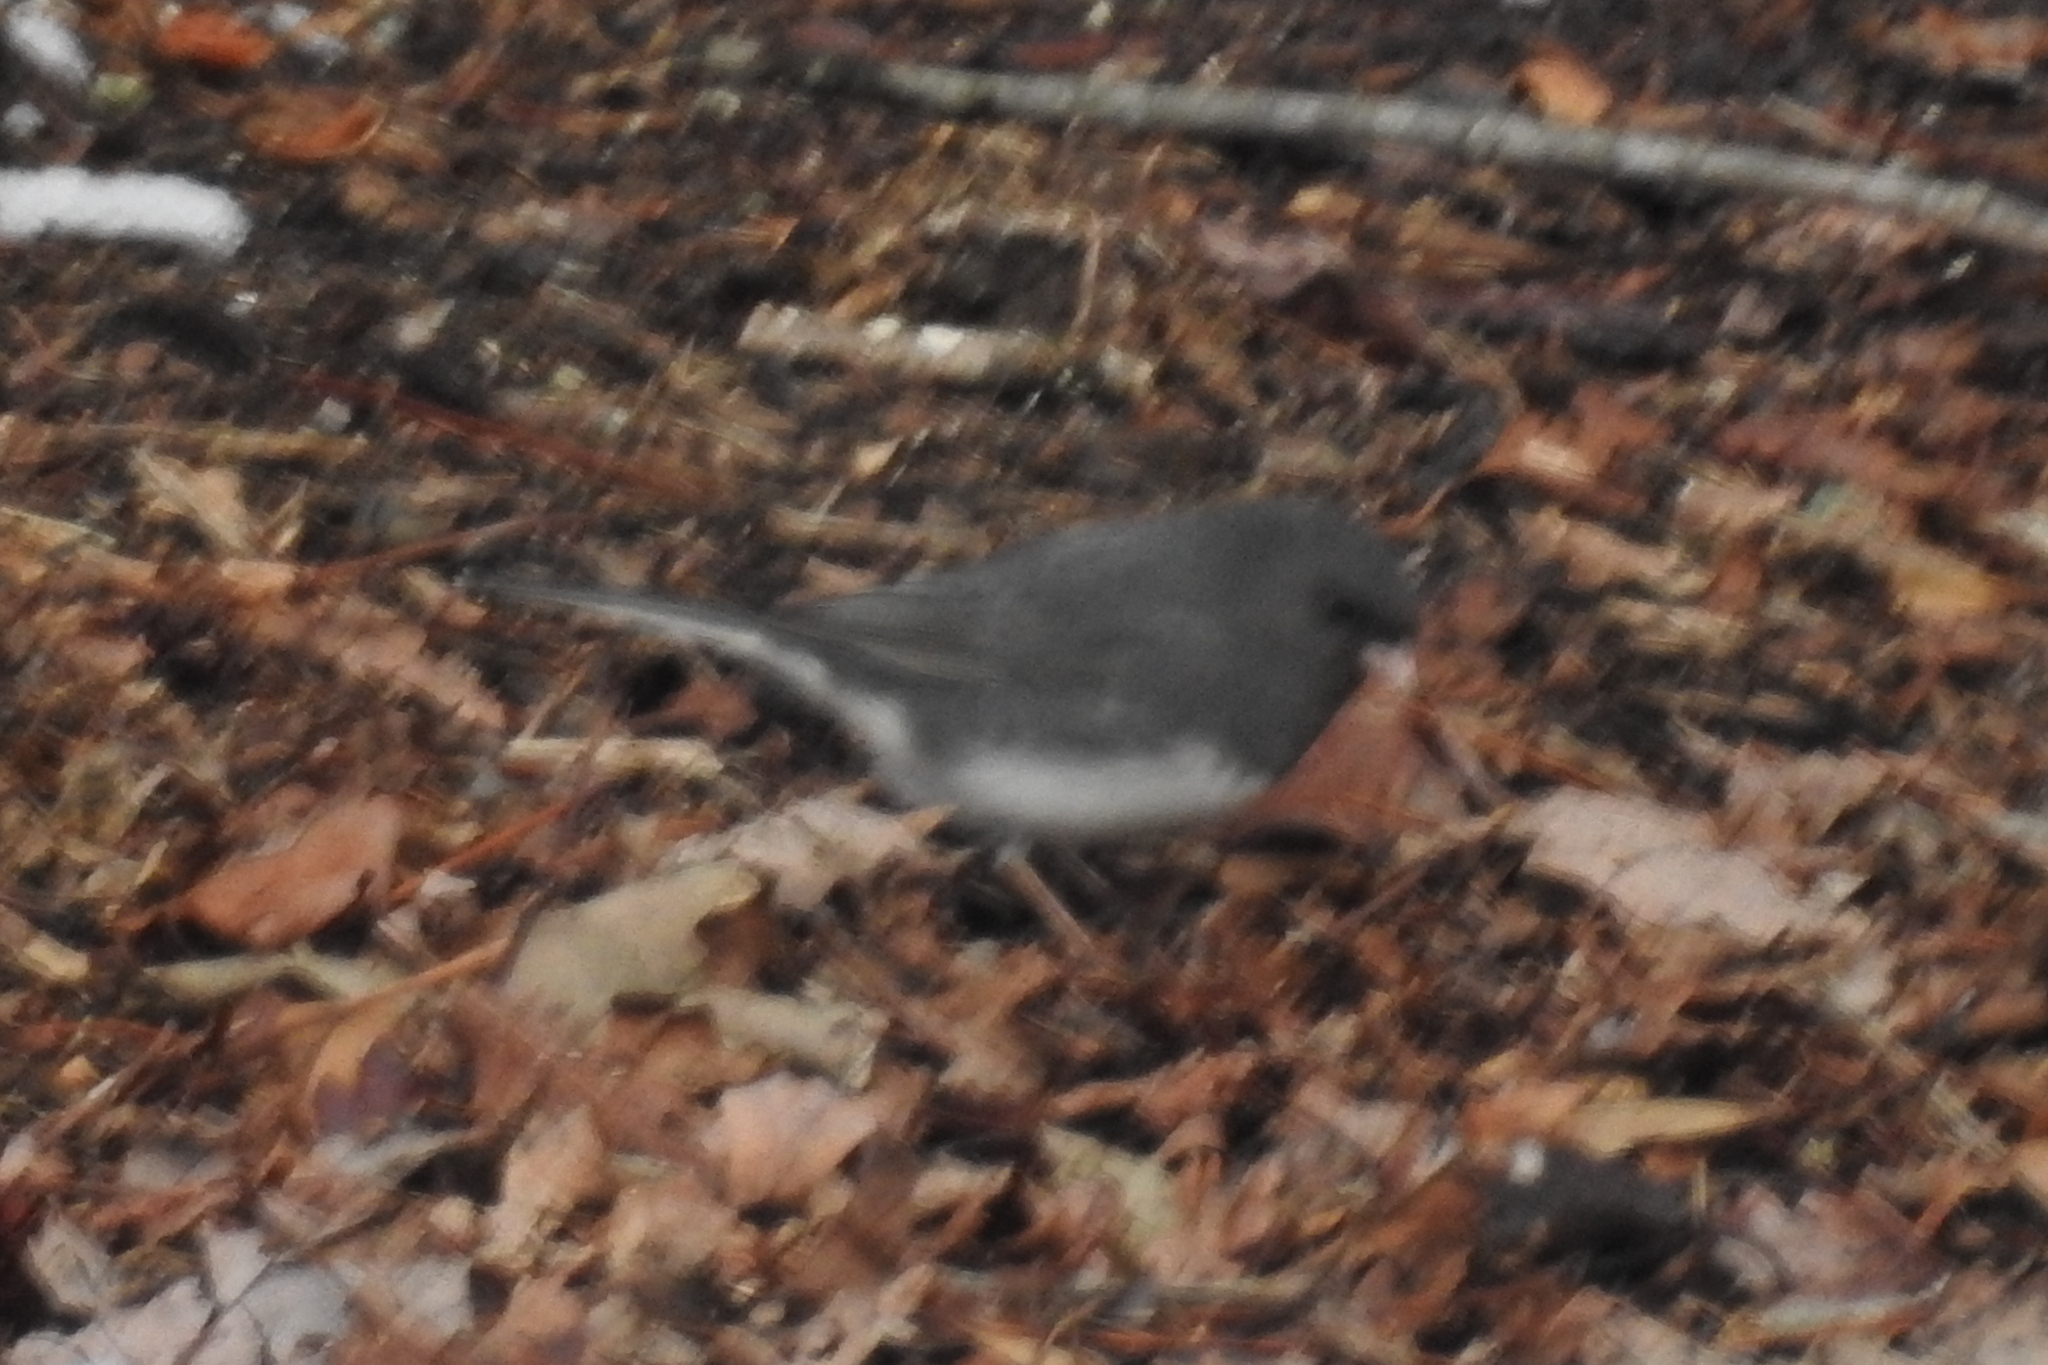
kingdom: Animalia
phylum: Chordata
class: Aves
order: Passeriformes
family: Passerellidae
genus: Junco
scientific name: Junco hyemalis
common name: Dark-eyed junco
